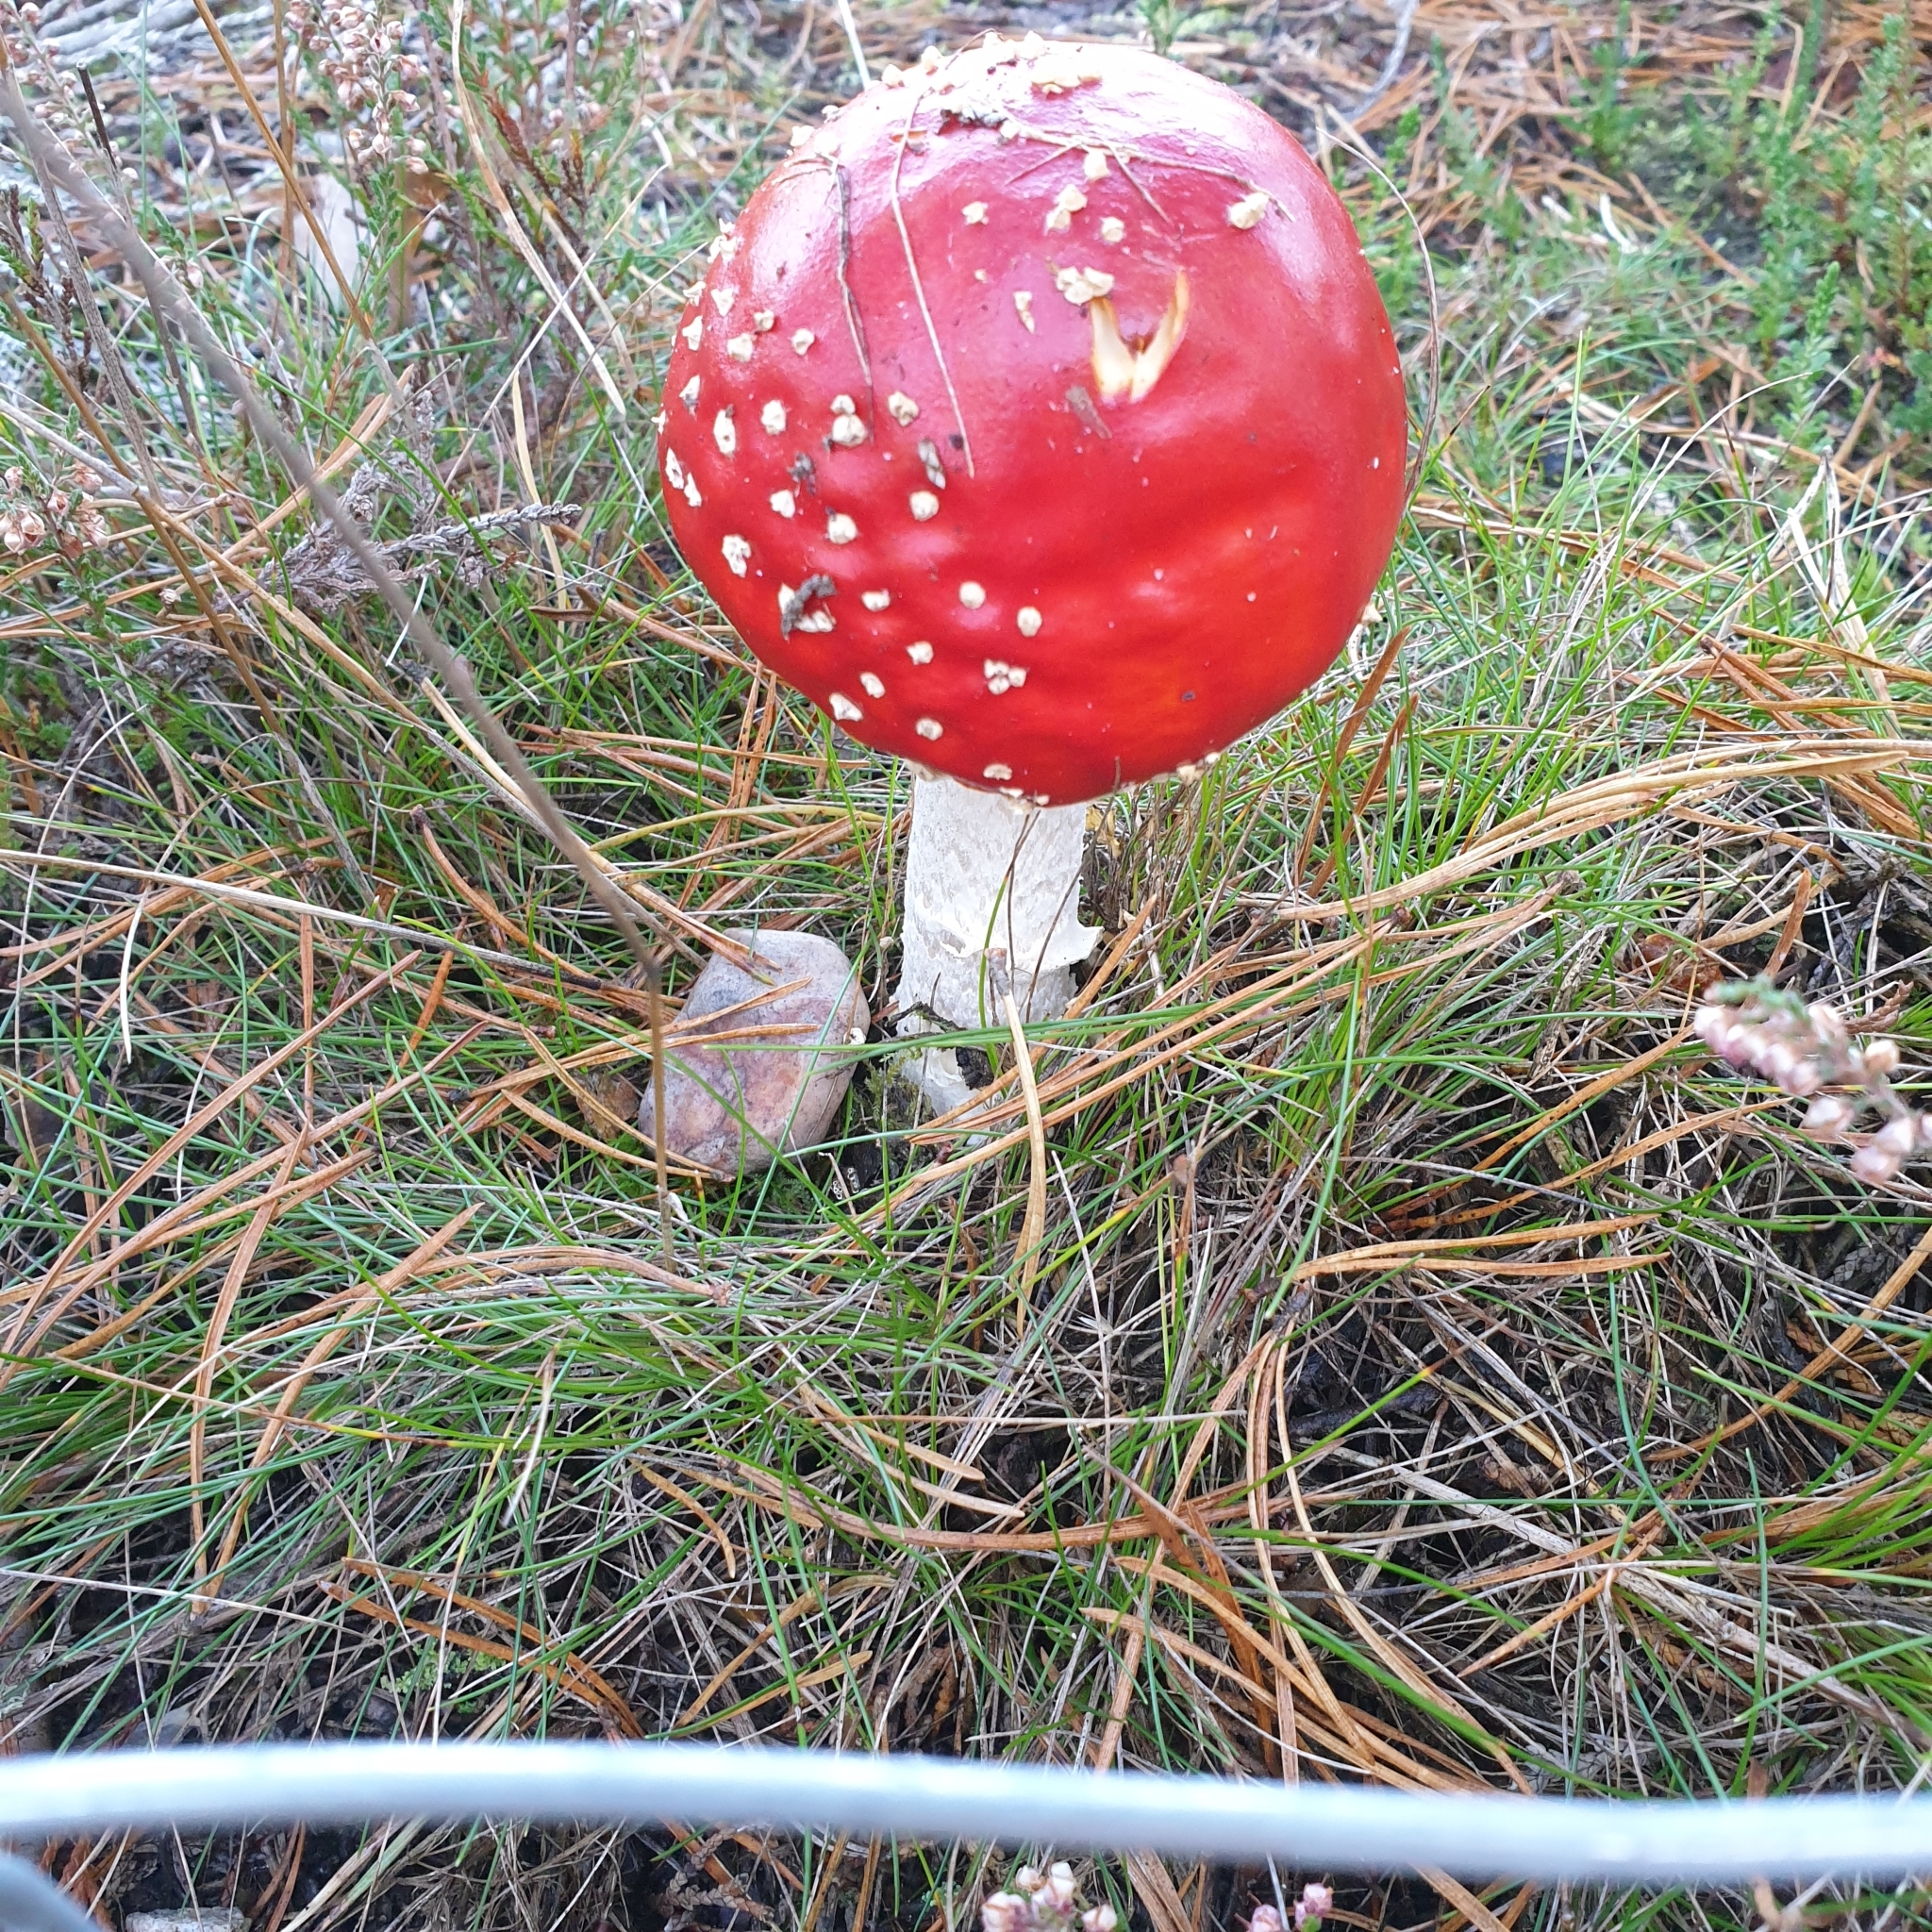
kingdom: Fungi
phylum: Basidiomycota
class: Agaricomycetes
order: Agaricales
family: Amanitaceae
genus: Amanita
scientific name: Amanita muscaria
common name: Fly agaric
